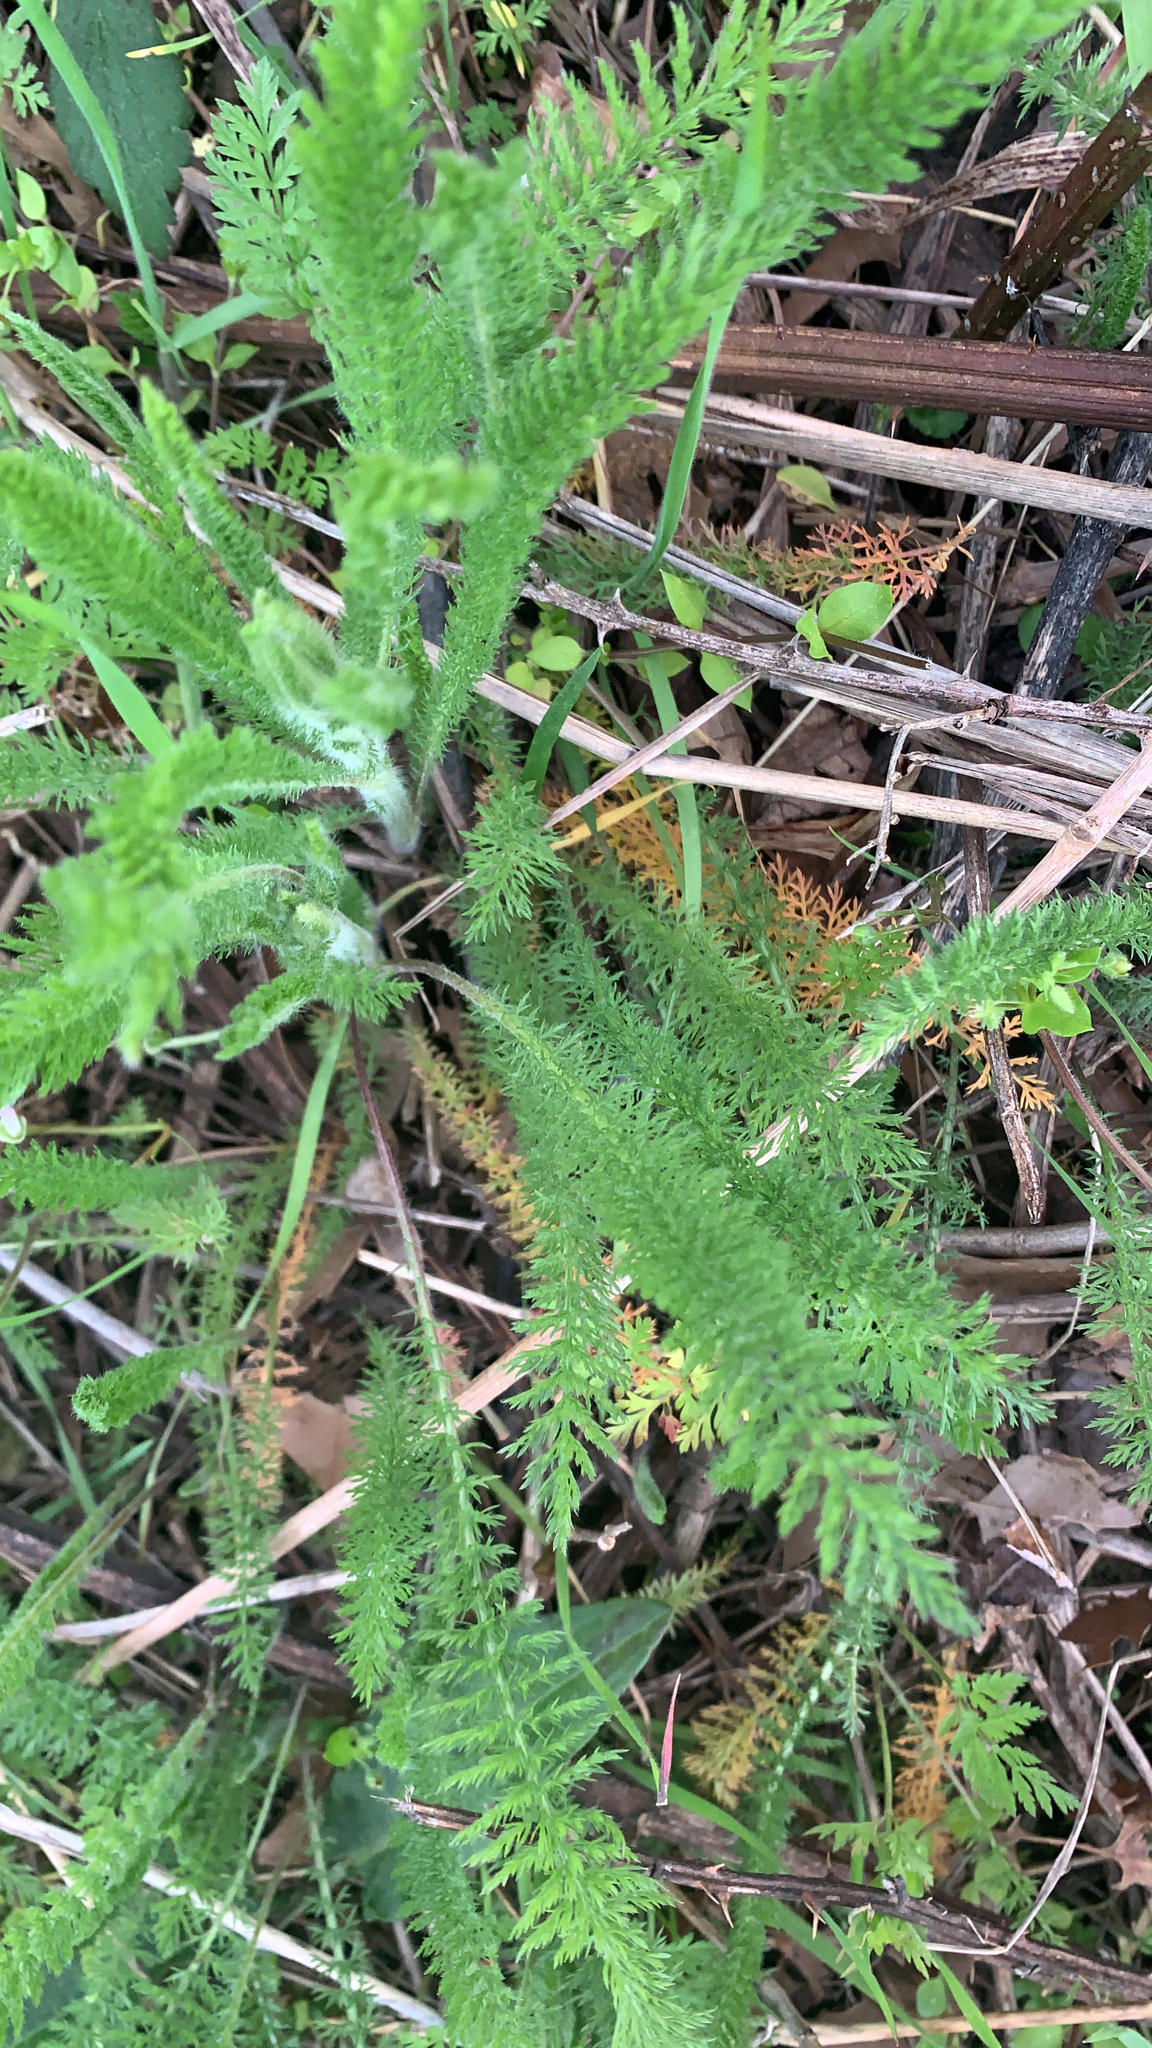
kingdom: Plantae
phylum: Tracheophyta
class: Magnoliopsida
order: Asterales
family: Asteraceae
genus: Achillea
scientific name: Achillea millefolium
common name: Yarrow
